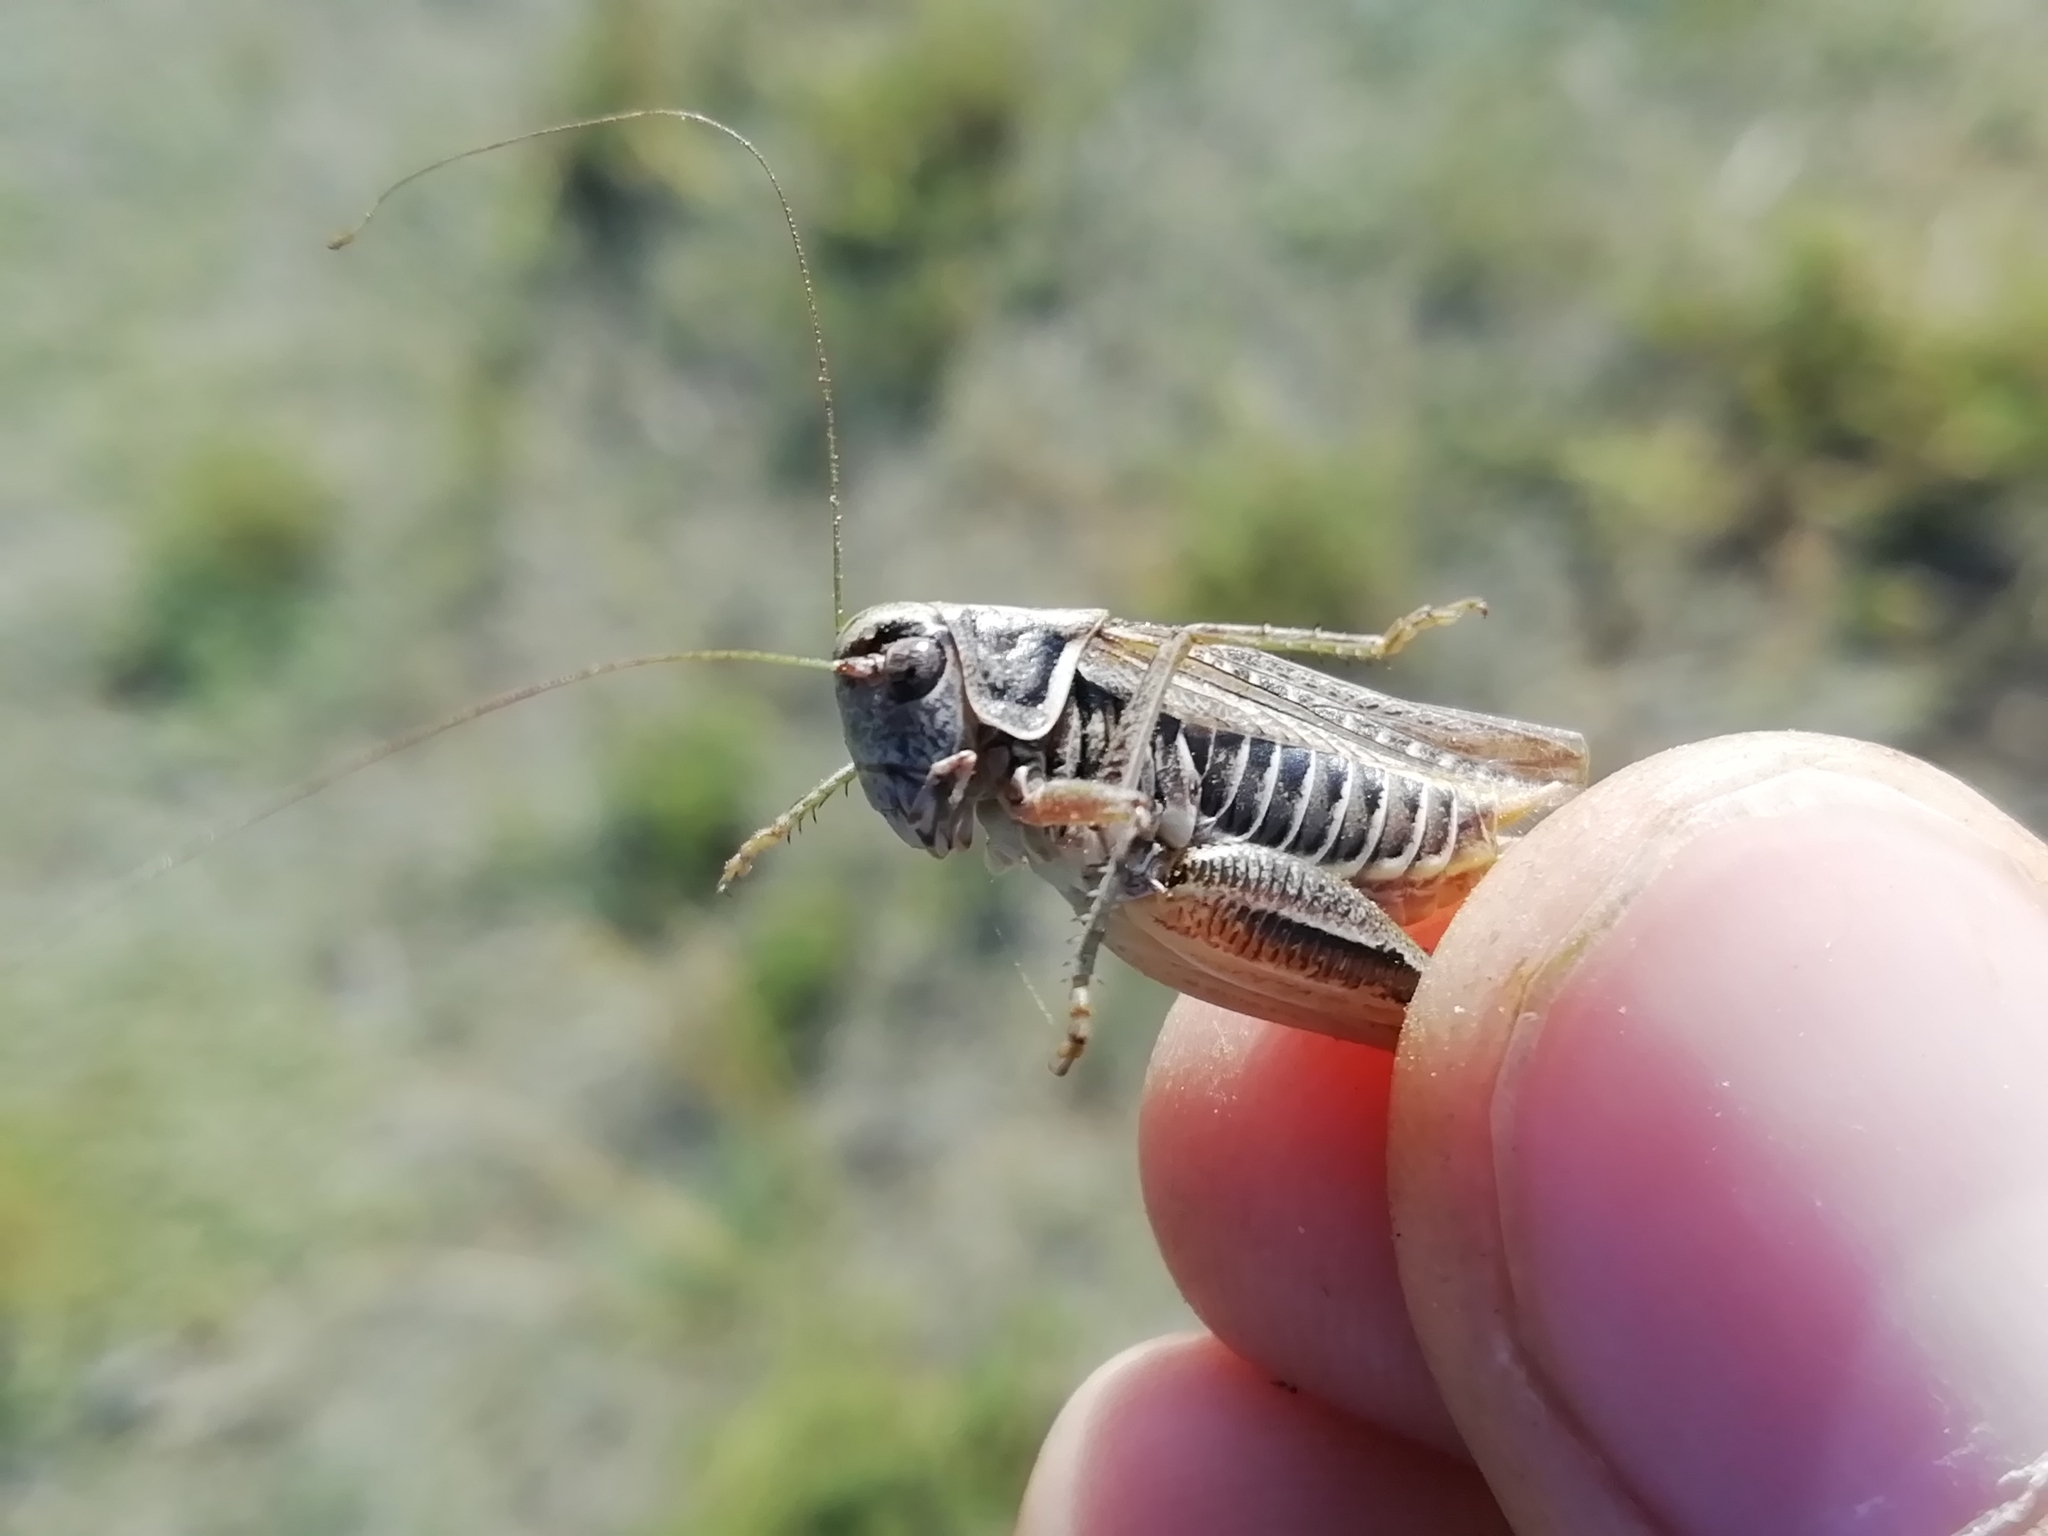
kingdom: Animalia
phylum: Arthropoda
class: Insecta
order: Orthoptera
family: Tettigoniidae
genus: Montana
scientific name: Montana montana
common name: Steppe bush-cricket
